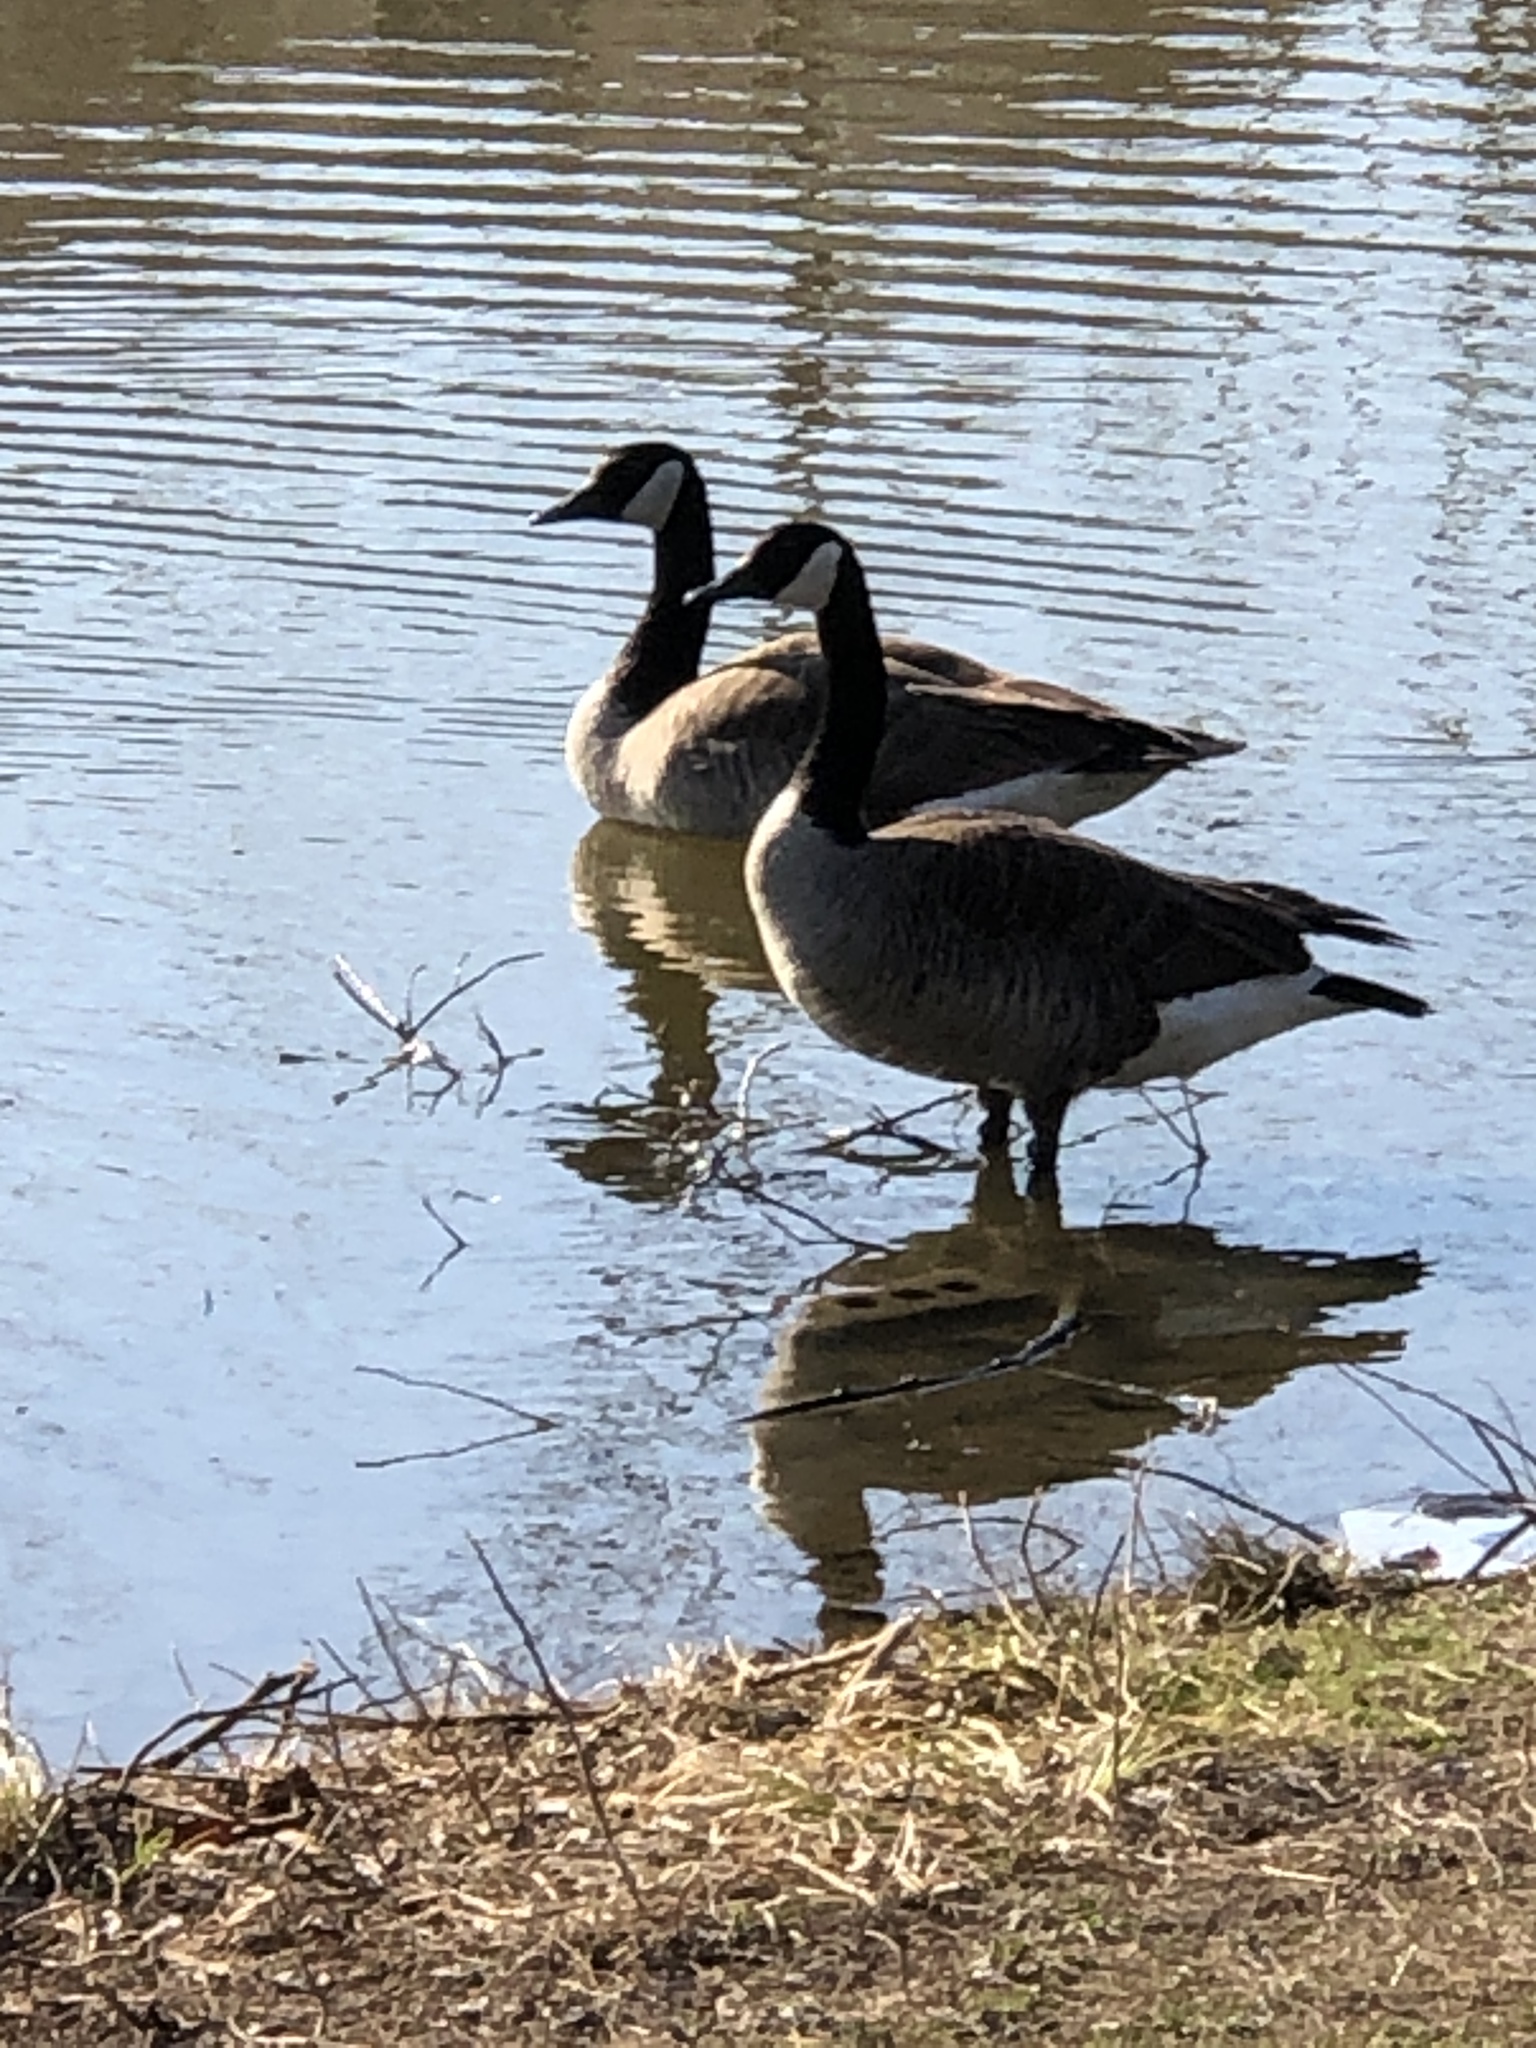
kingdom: Animalia
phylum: Chordata
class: Aves
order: Anseriformes
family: Anatidae
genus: Branta
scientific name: Branta canadensis
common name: Canada goose
